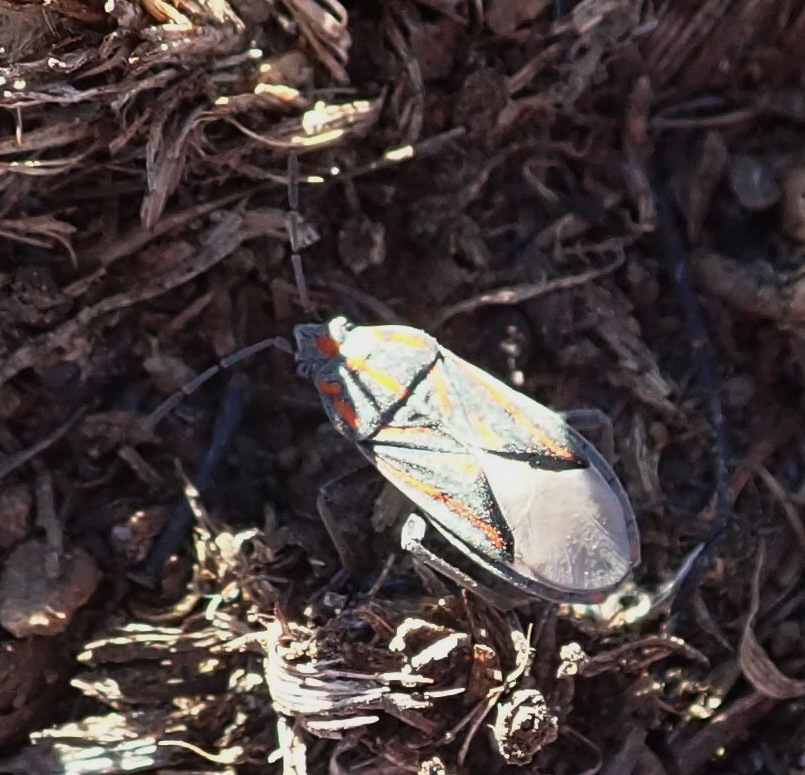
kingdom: Animalia
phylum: Arthropoda
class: Insecta
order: Hemiptera
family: Lygaeidae
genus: Spilostethus
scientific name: Spilostethus trilineatus
